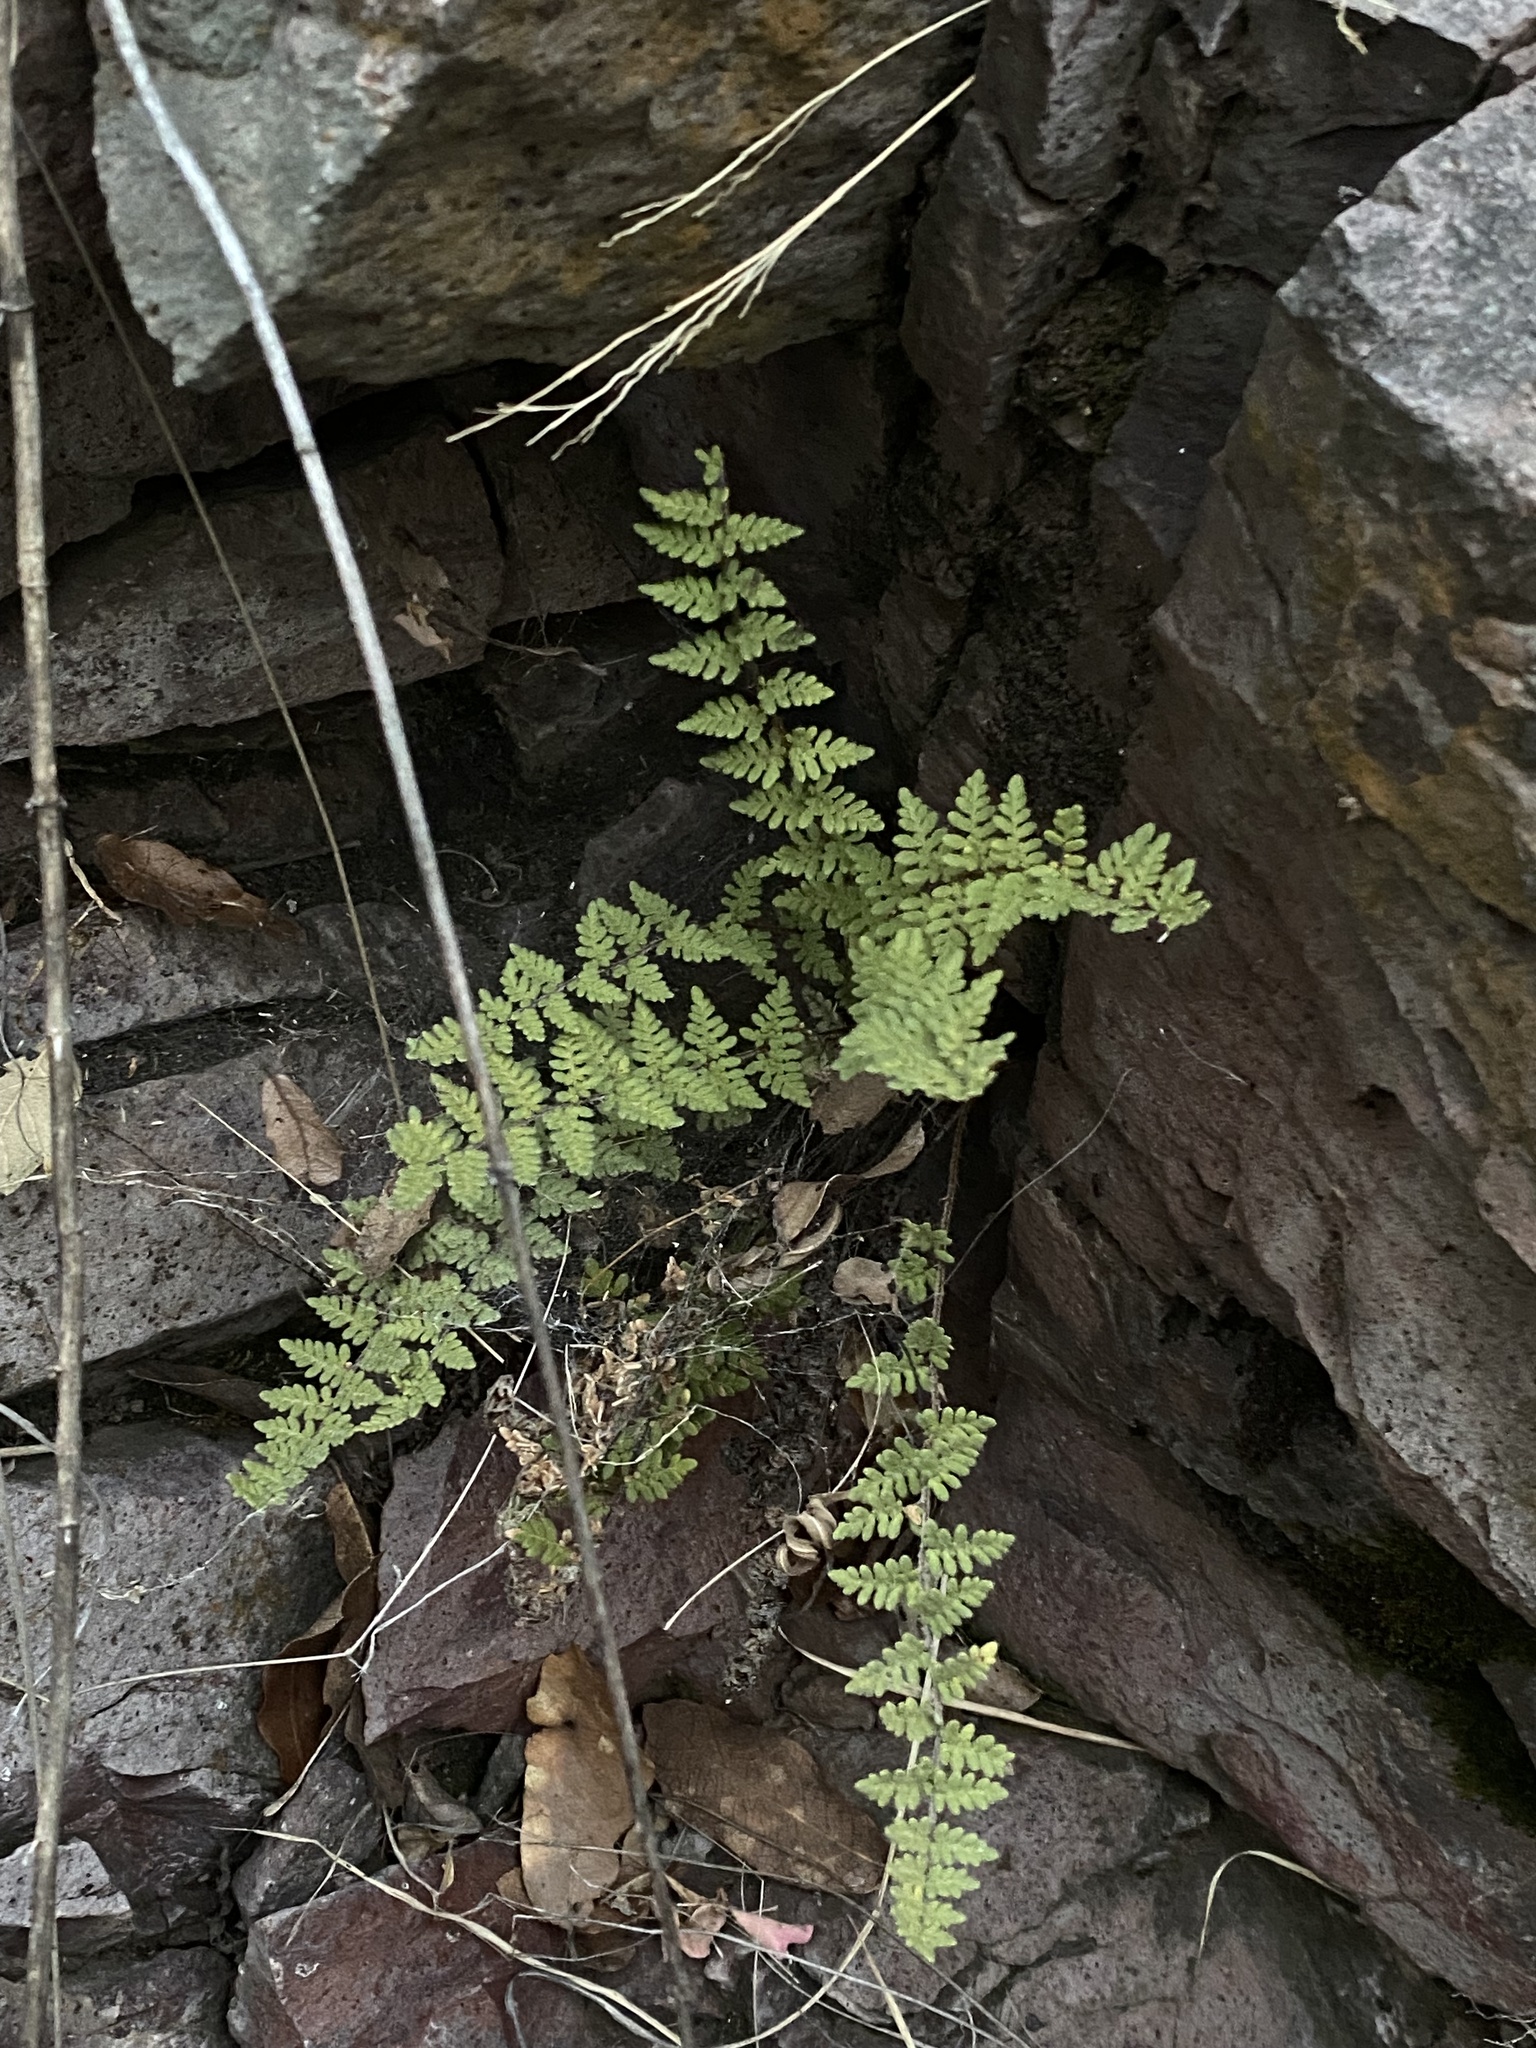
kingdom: Plantae
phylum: Tracheophyta
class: Polypodiopsida
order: Polypodiales
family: Pteridaceae
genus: Myriopteris
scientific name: Myriopteris tomentosa
